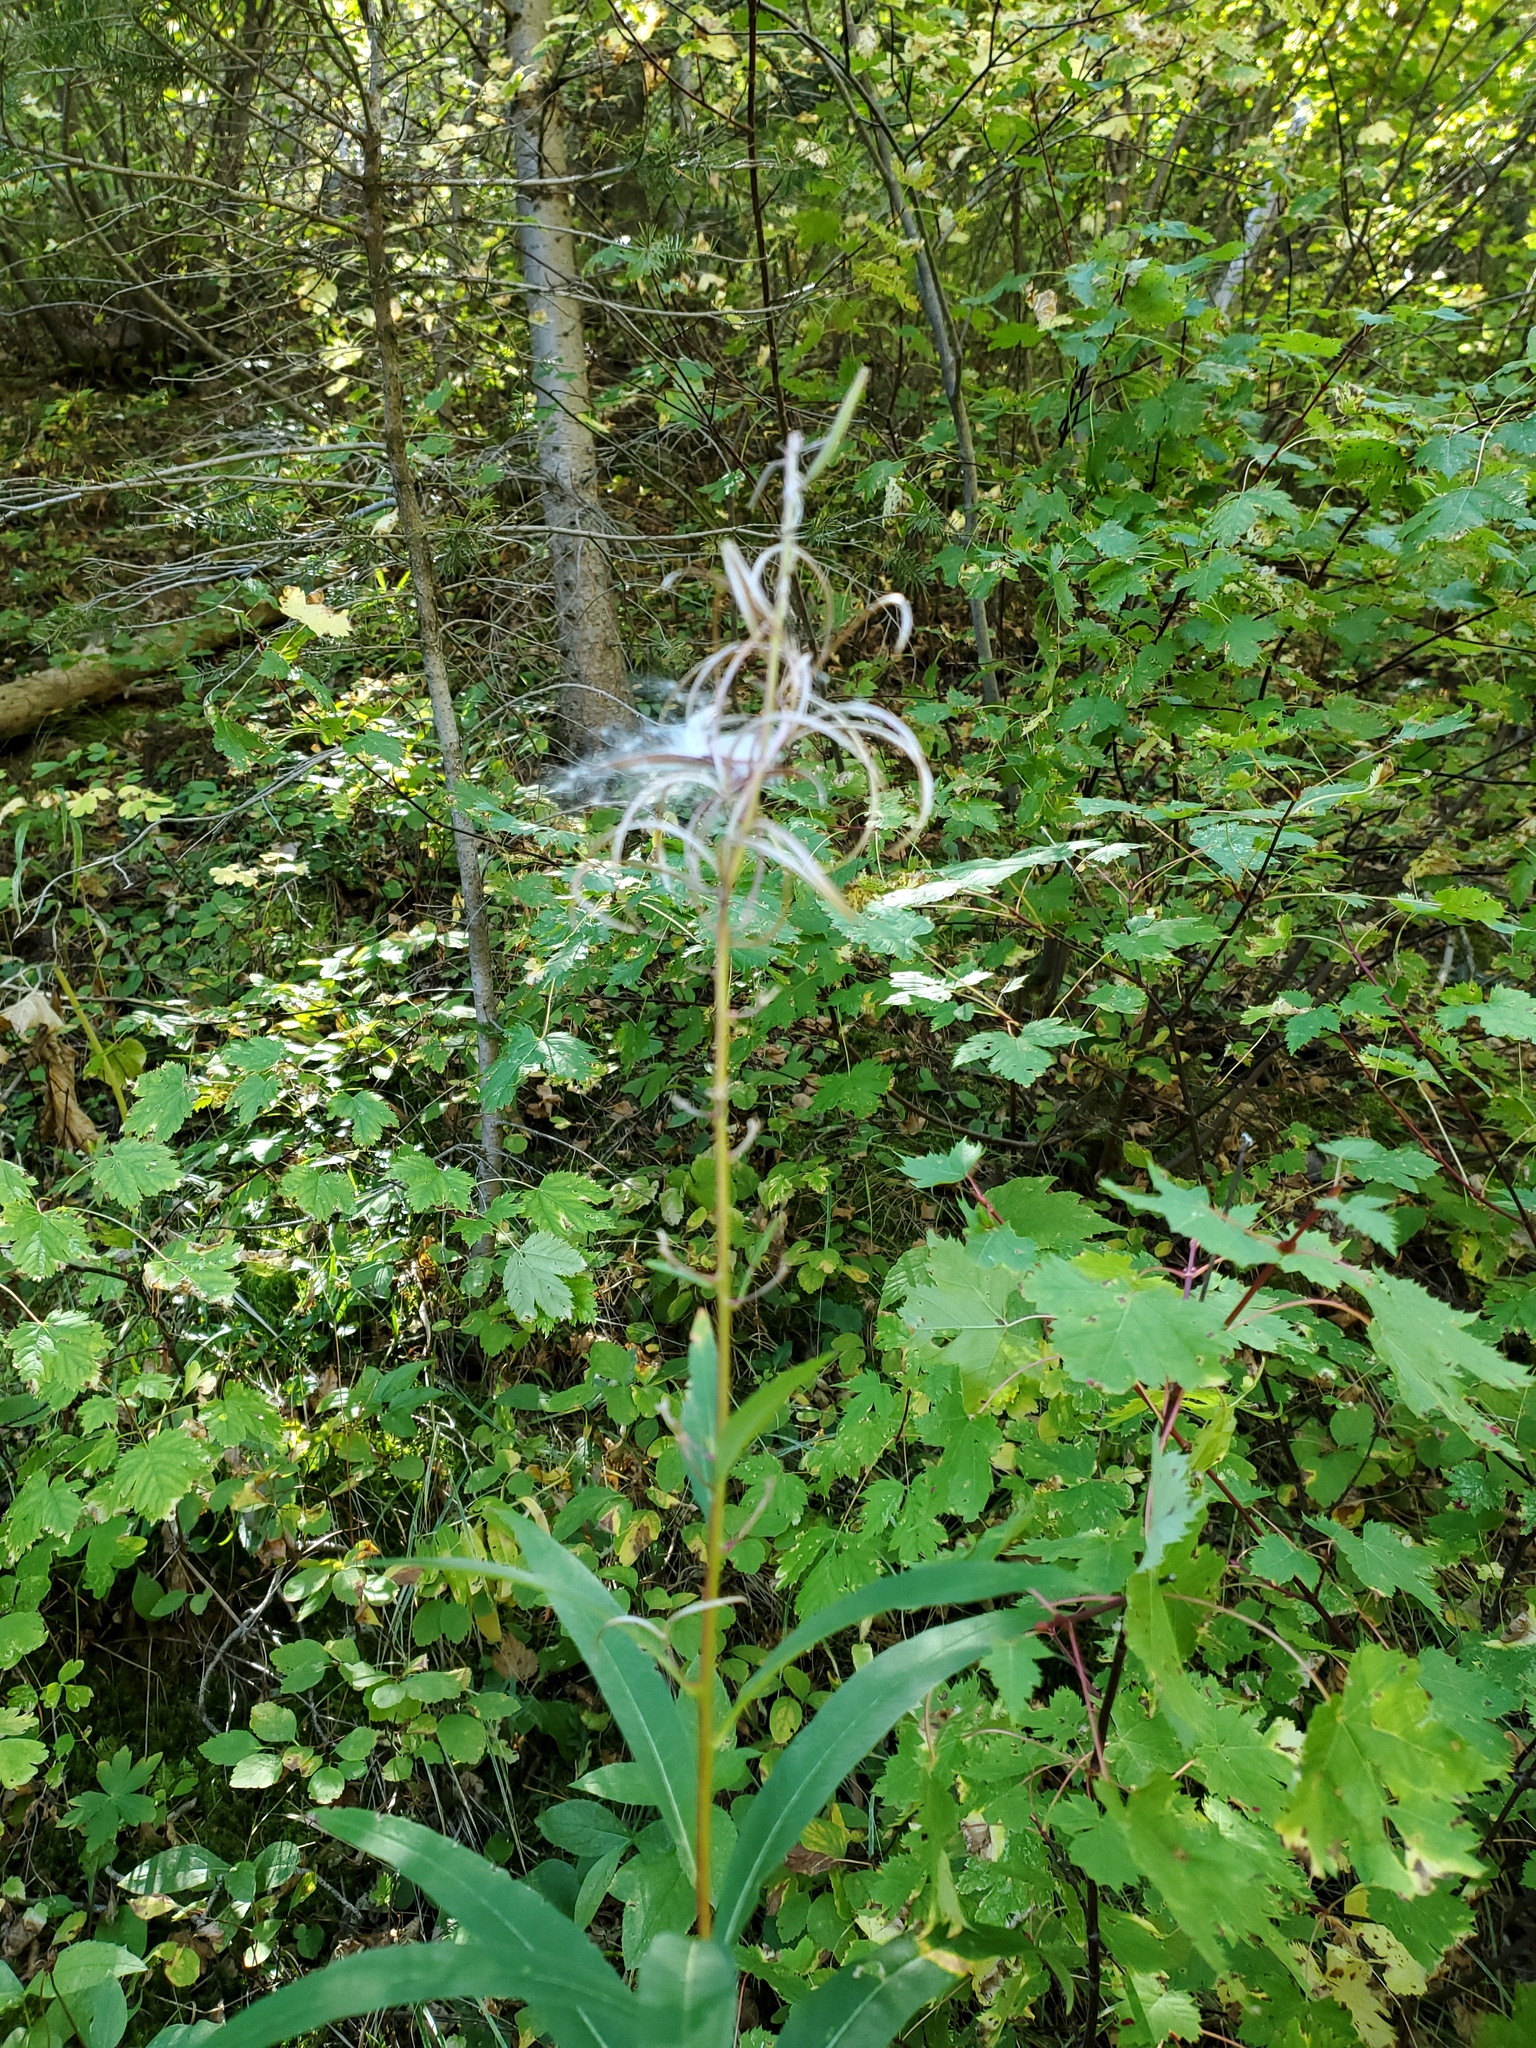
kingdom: Plantae
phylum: Tracheophyta
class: Magnoliopsida
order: Myrtales
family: Onagraceae
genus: Chamaenerion
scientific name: Chamaenerion angustifolium
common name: Fireweed
